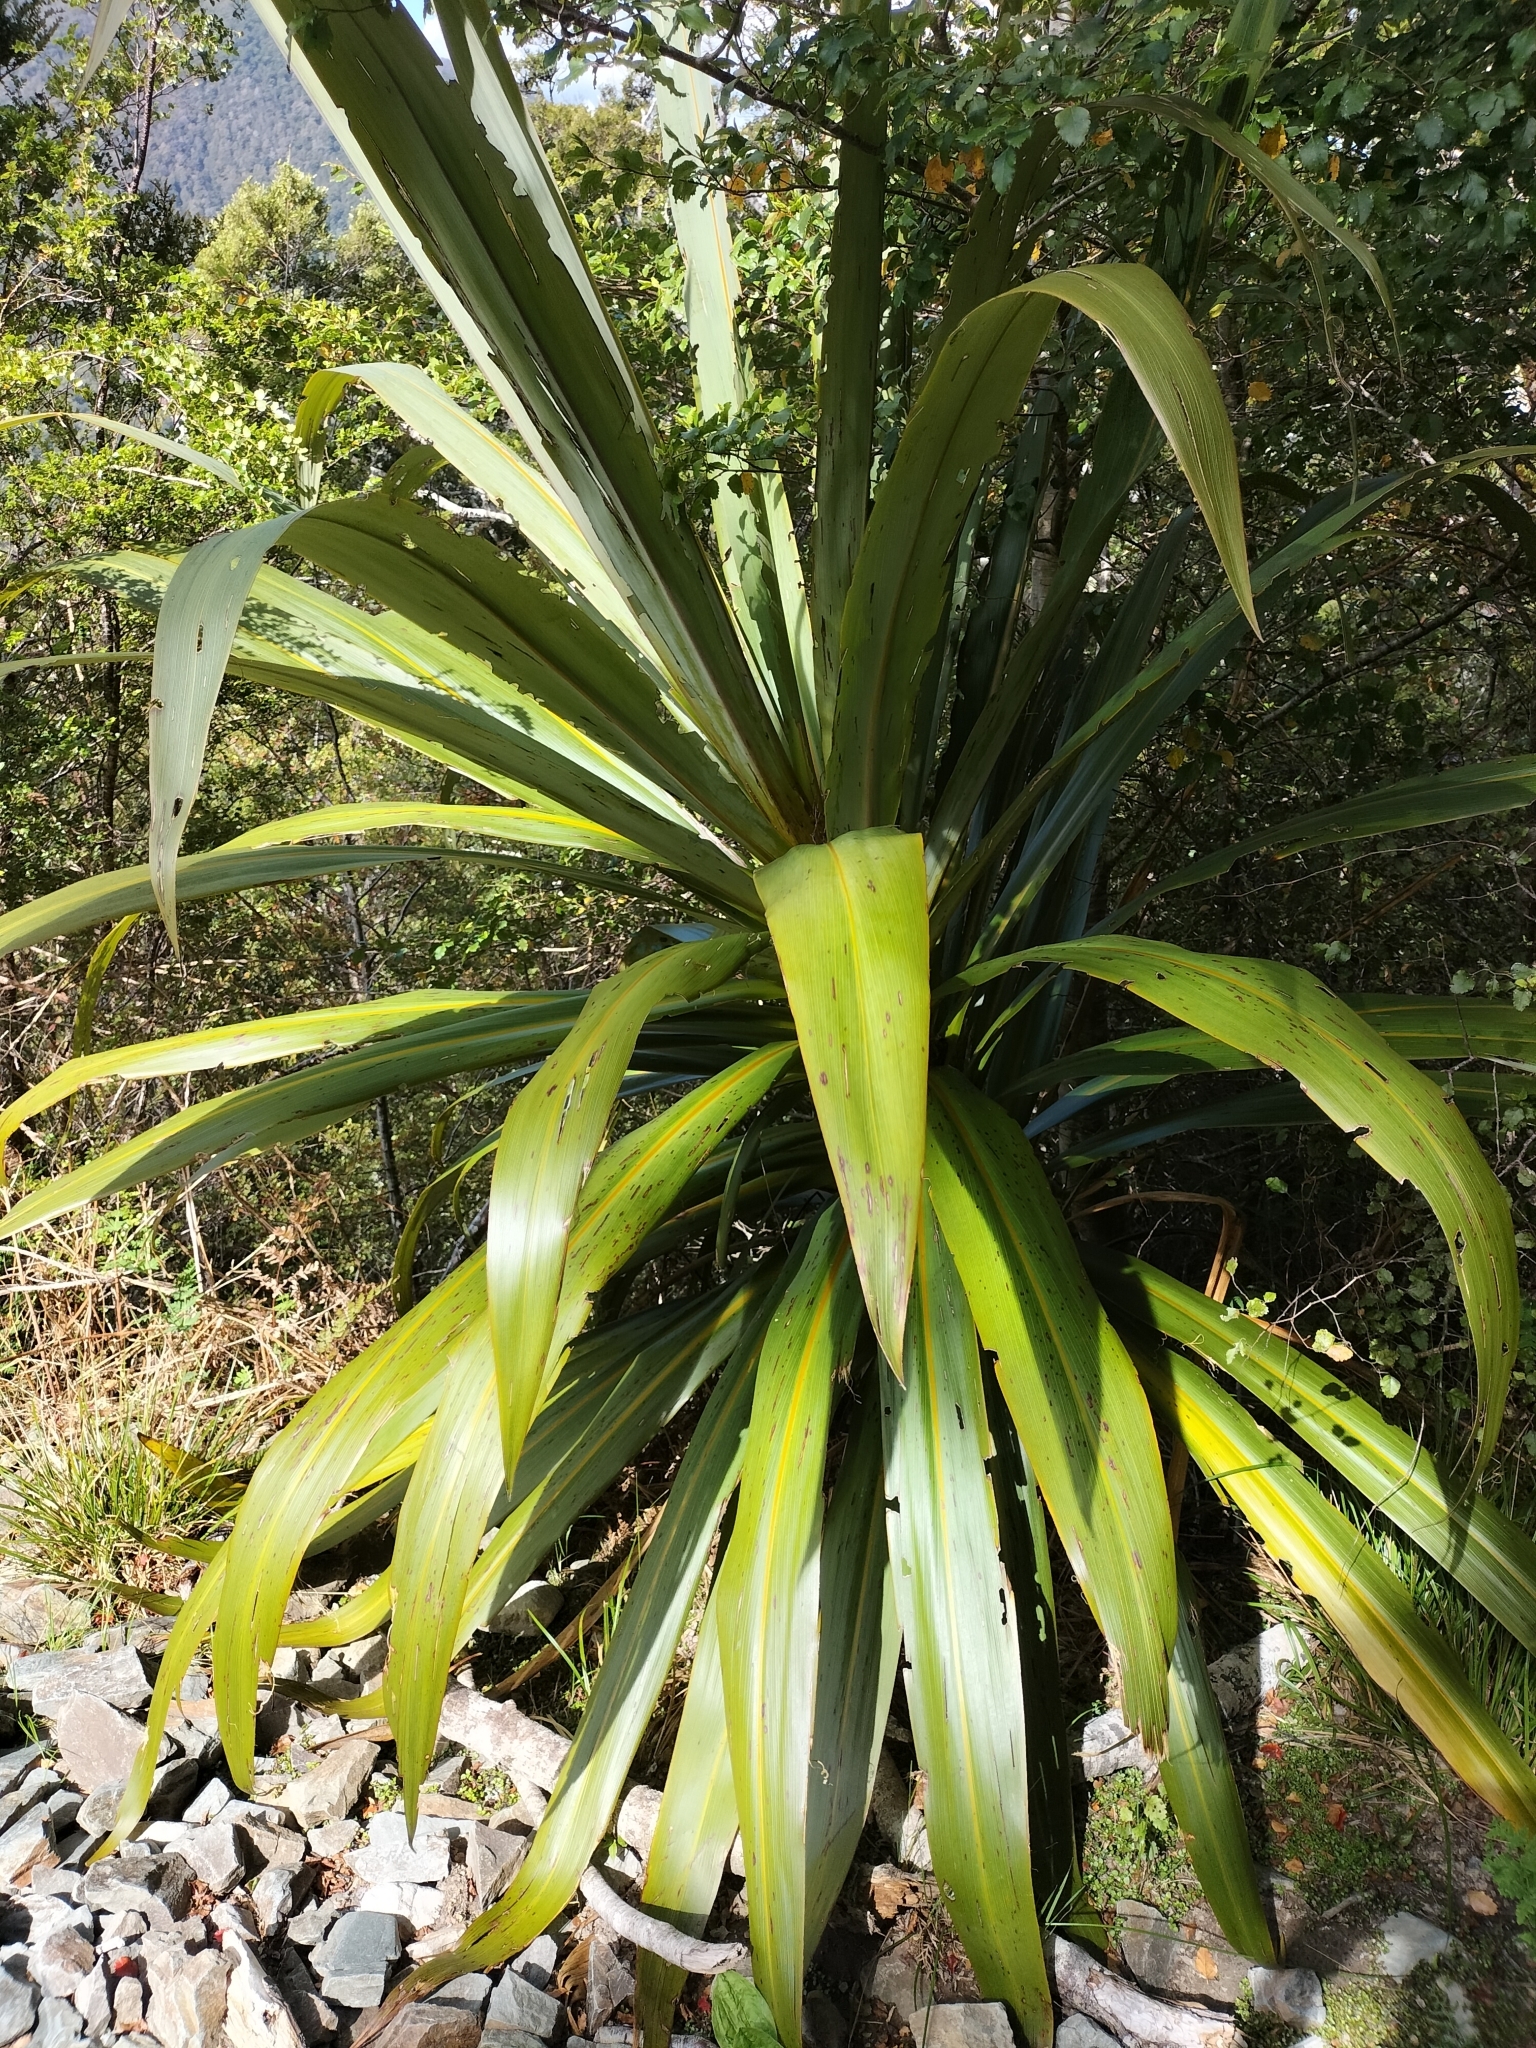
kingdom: Plantae
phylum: Tracheophyta
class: Liliopsida
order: Asparagales
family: Asparagaceae
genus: Cordyline
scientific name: Cordyline indivisa
